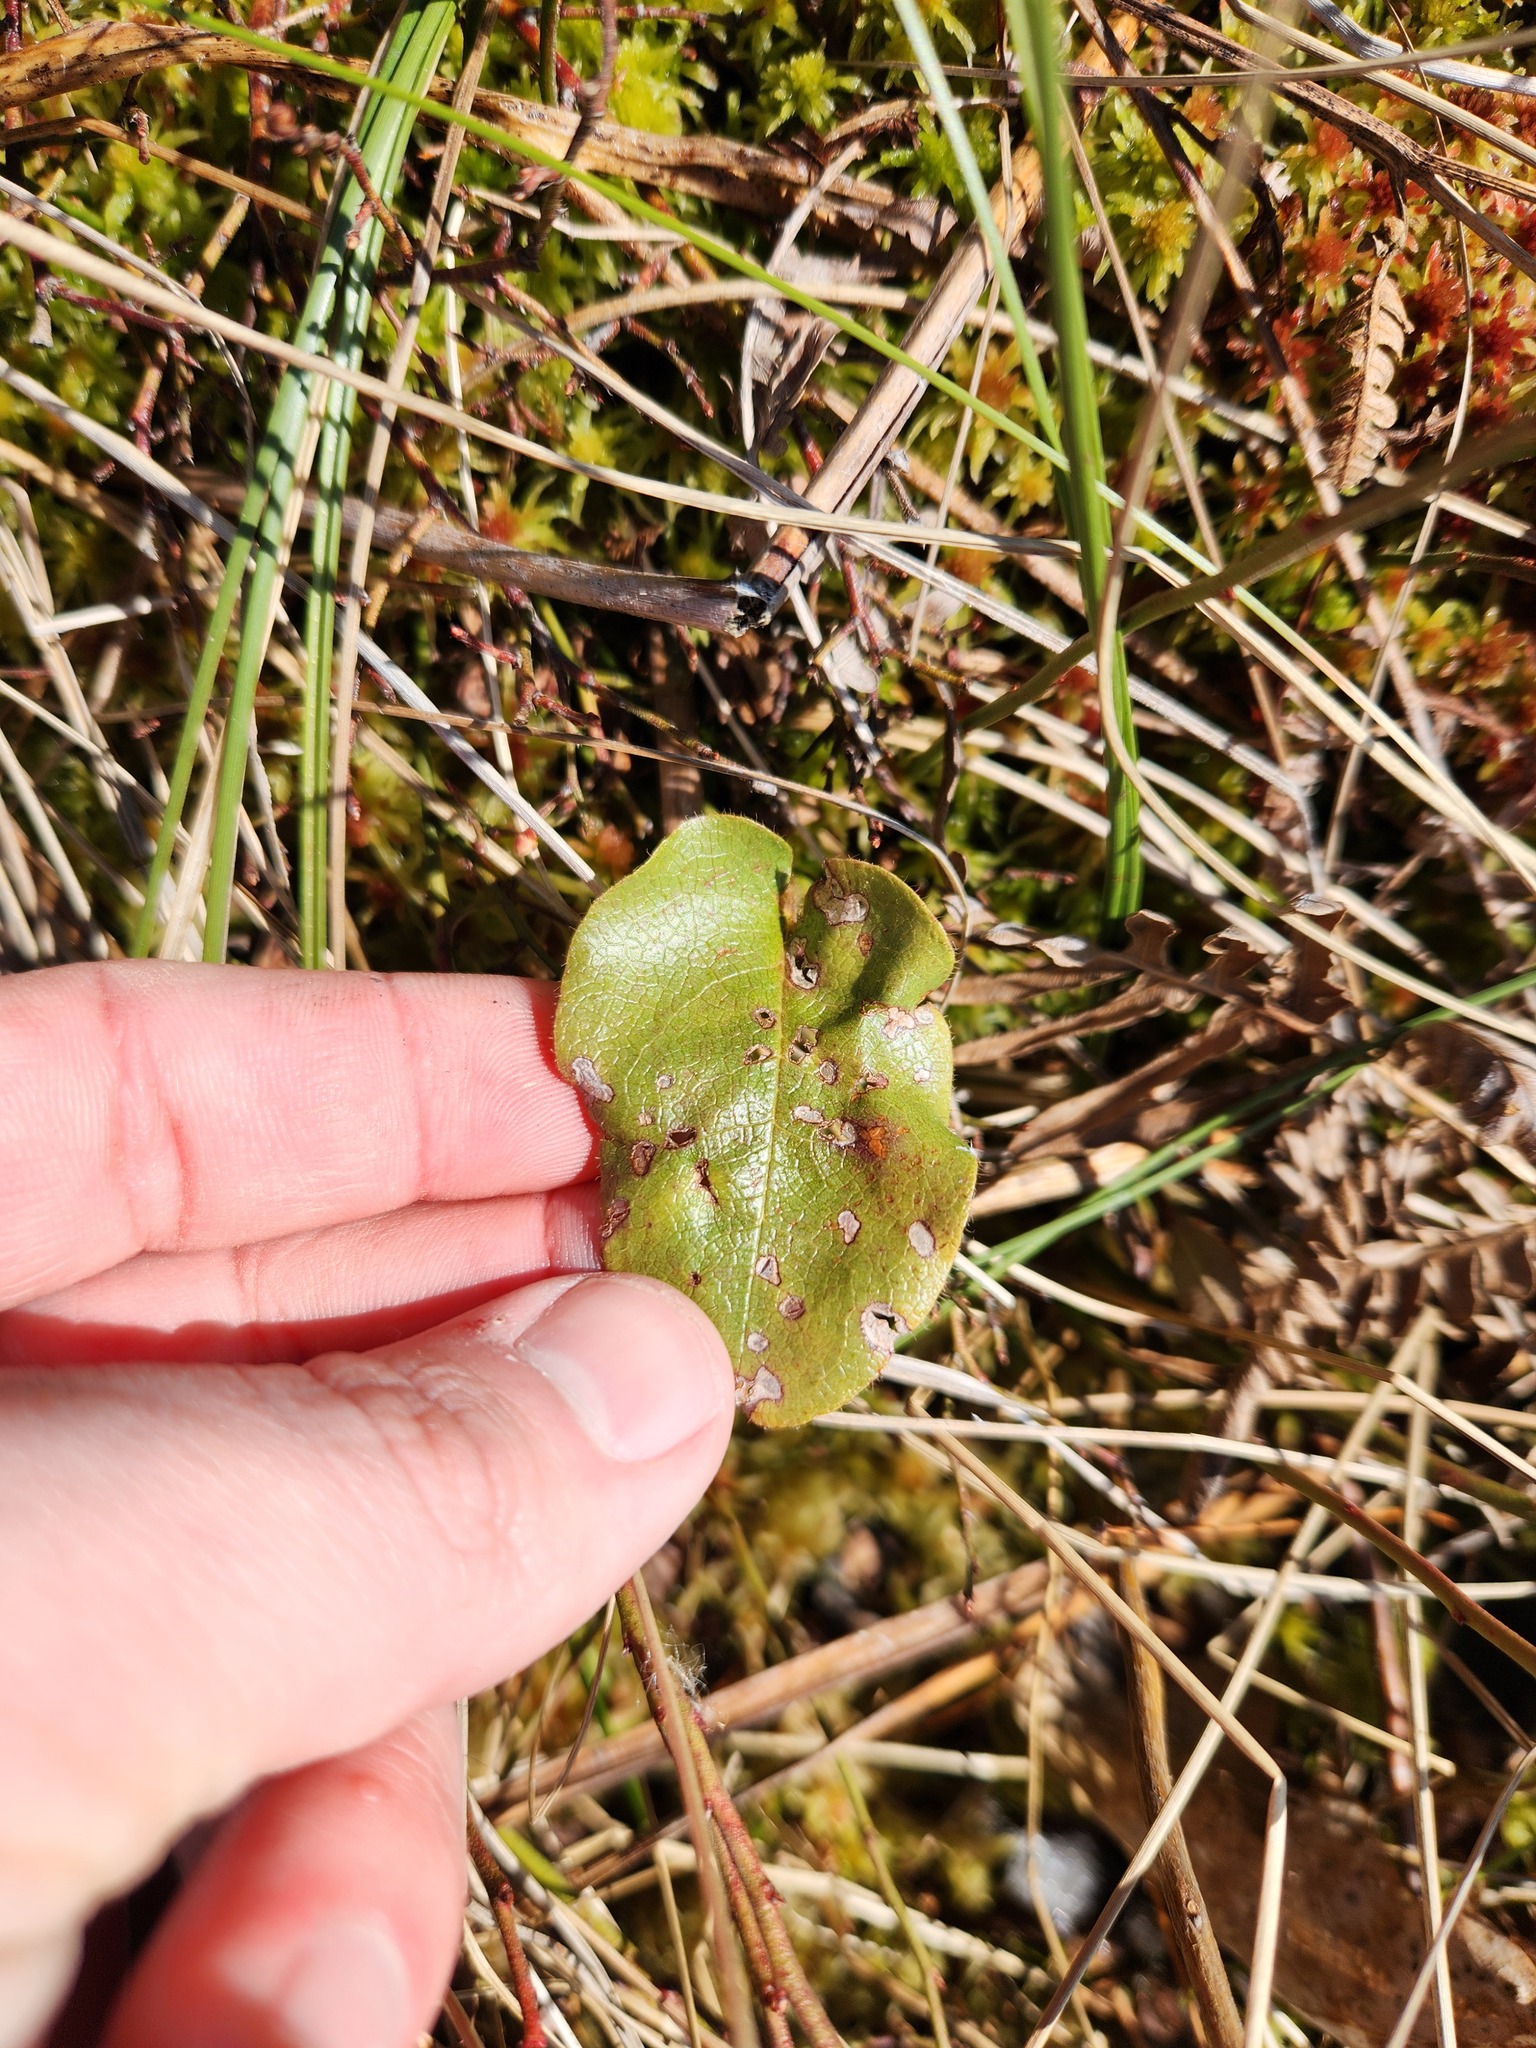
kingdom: Plantae
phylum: Tracheophyta
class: Magnoliopsida
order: Ericales
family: Ericaceae
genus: Epigaea
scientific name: Epigaea repens
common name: Gravelroot
